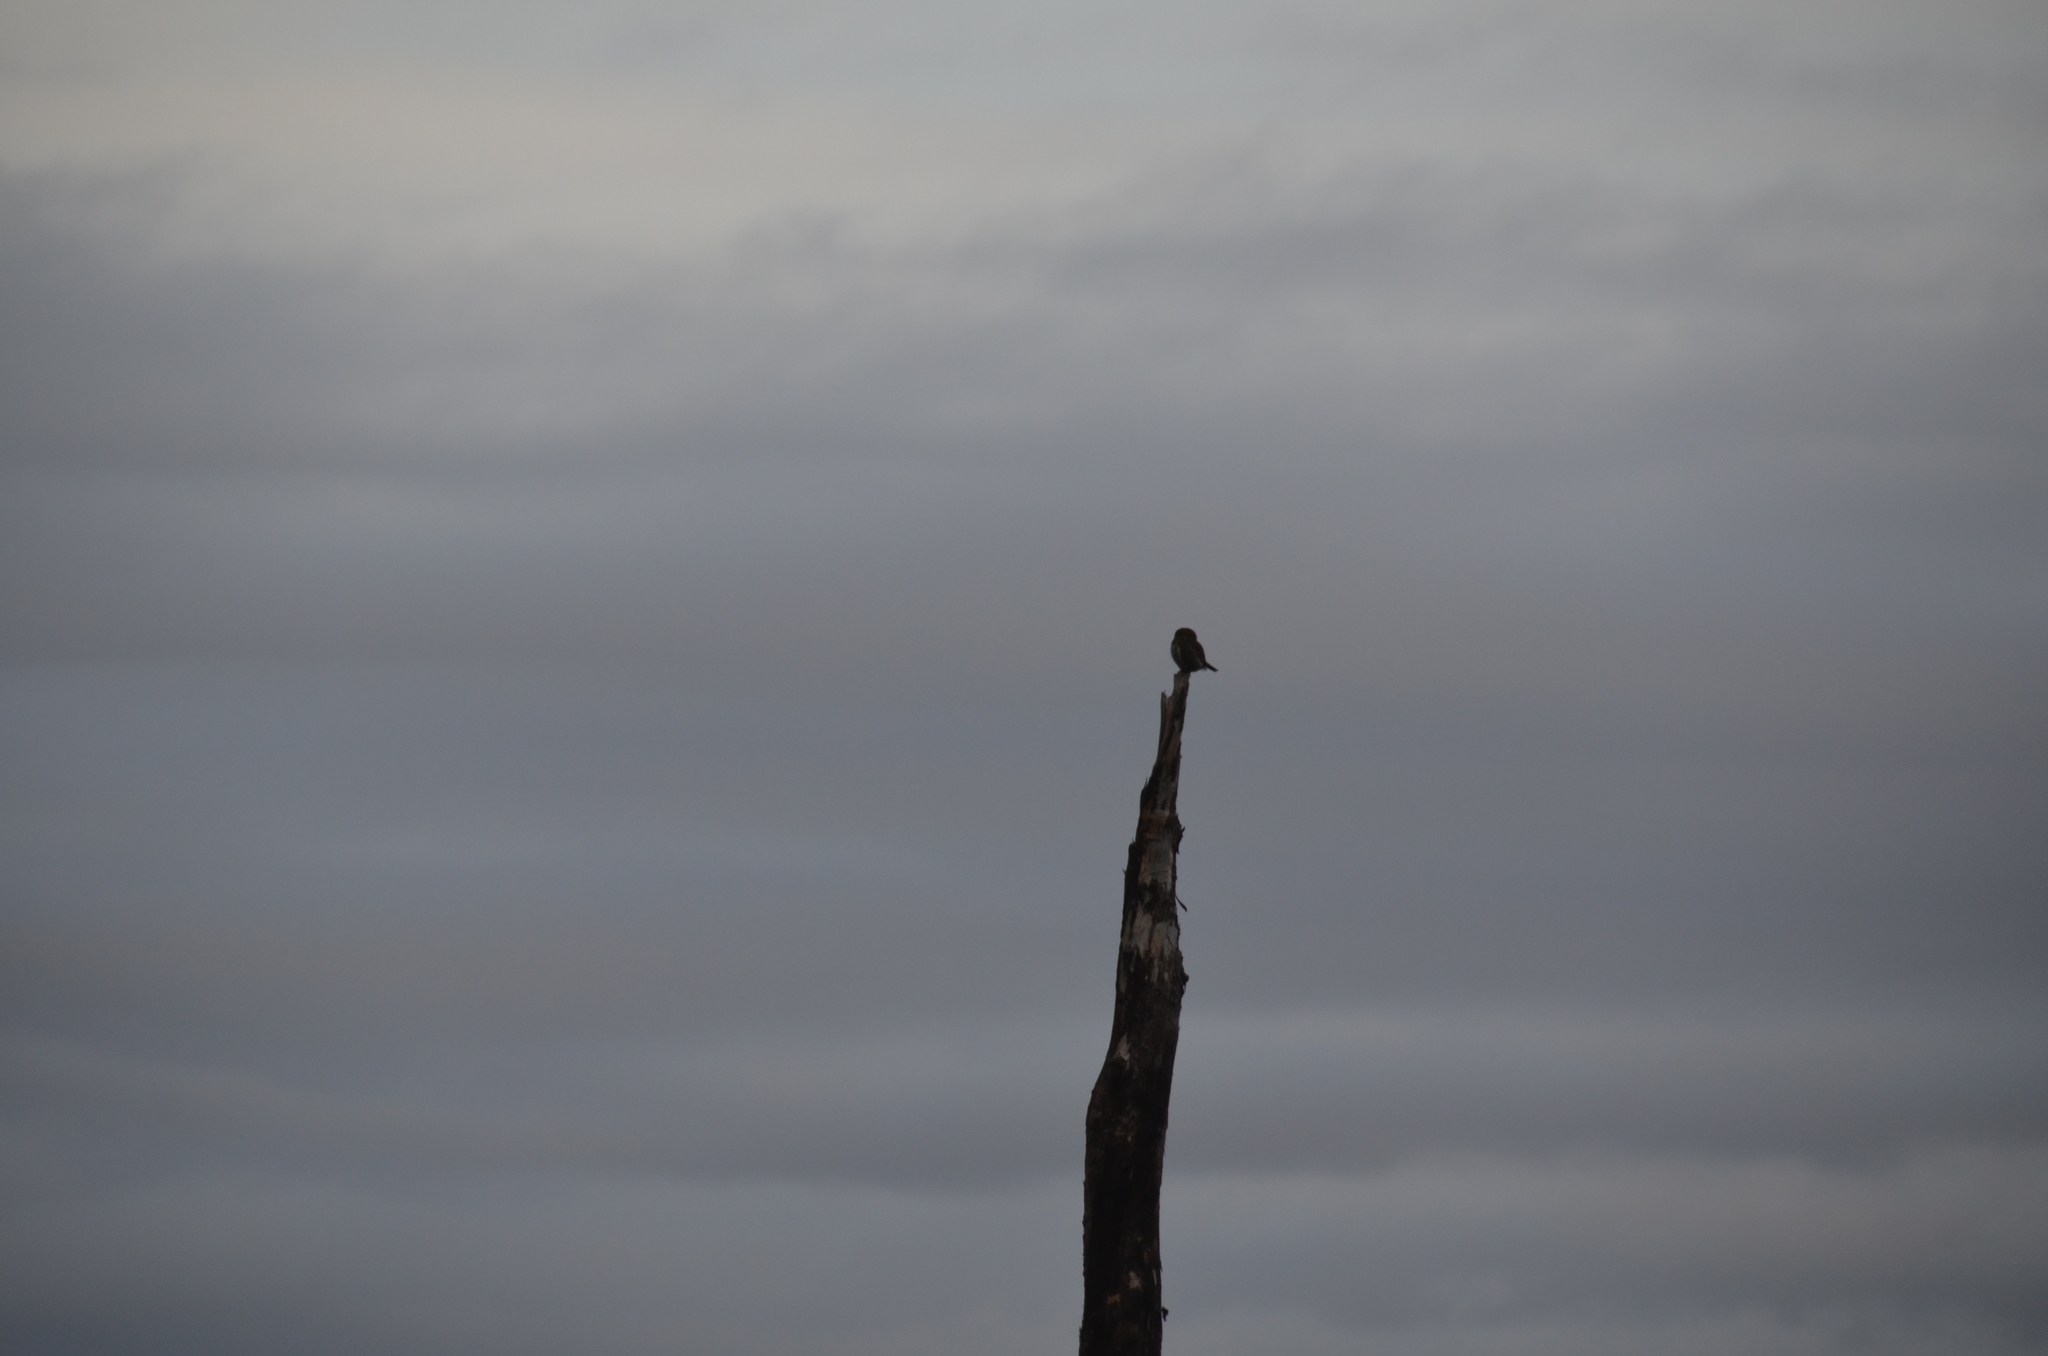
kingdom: Animalia
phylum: Chordata
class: Aves
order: Strigiformes
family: Strigidae
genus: Glaucidium
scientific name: Glaucidium californicum
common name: Northern pygmy owl
